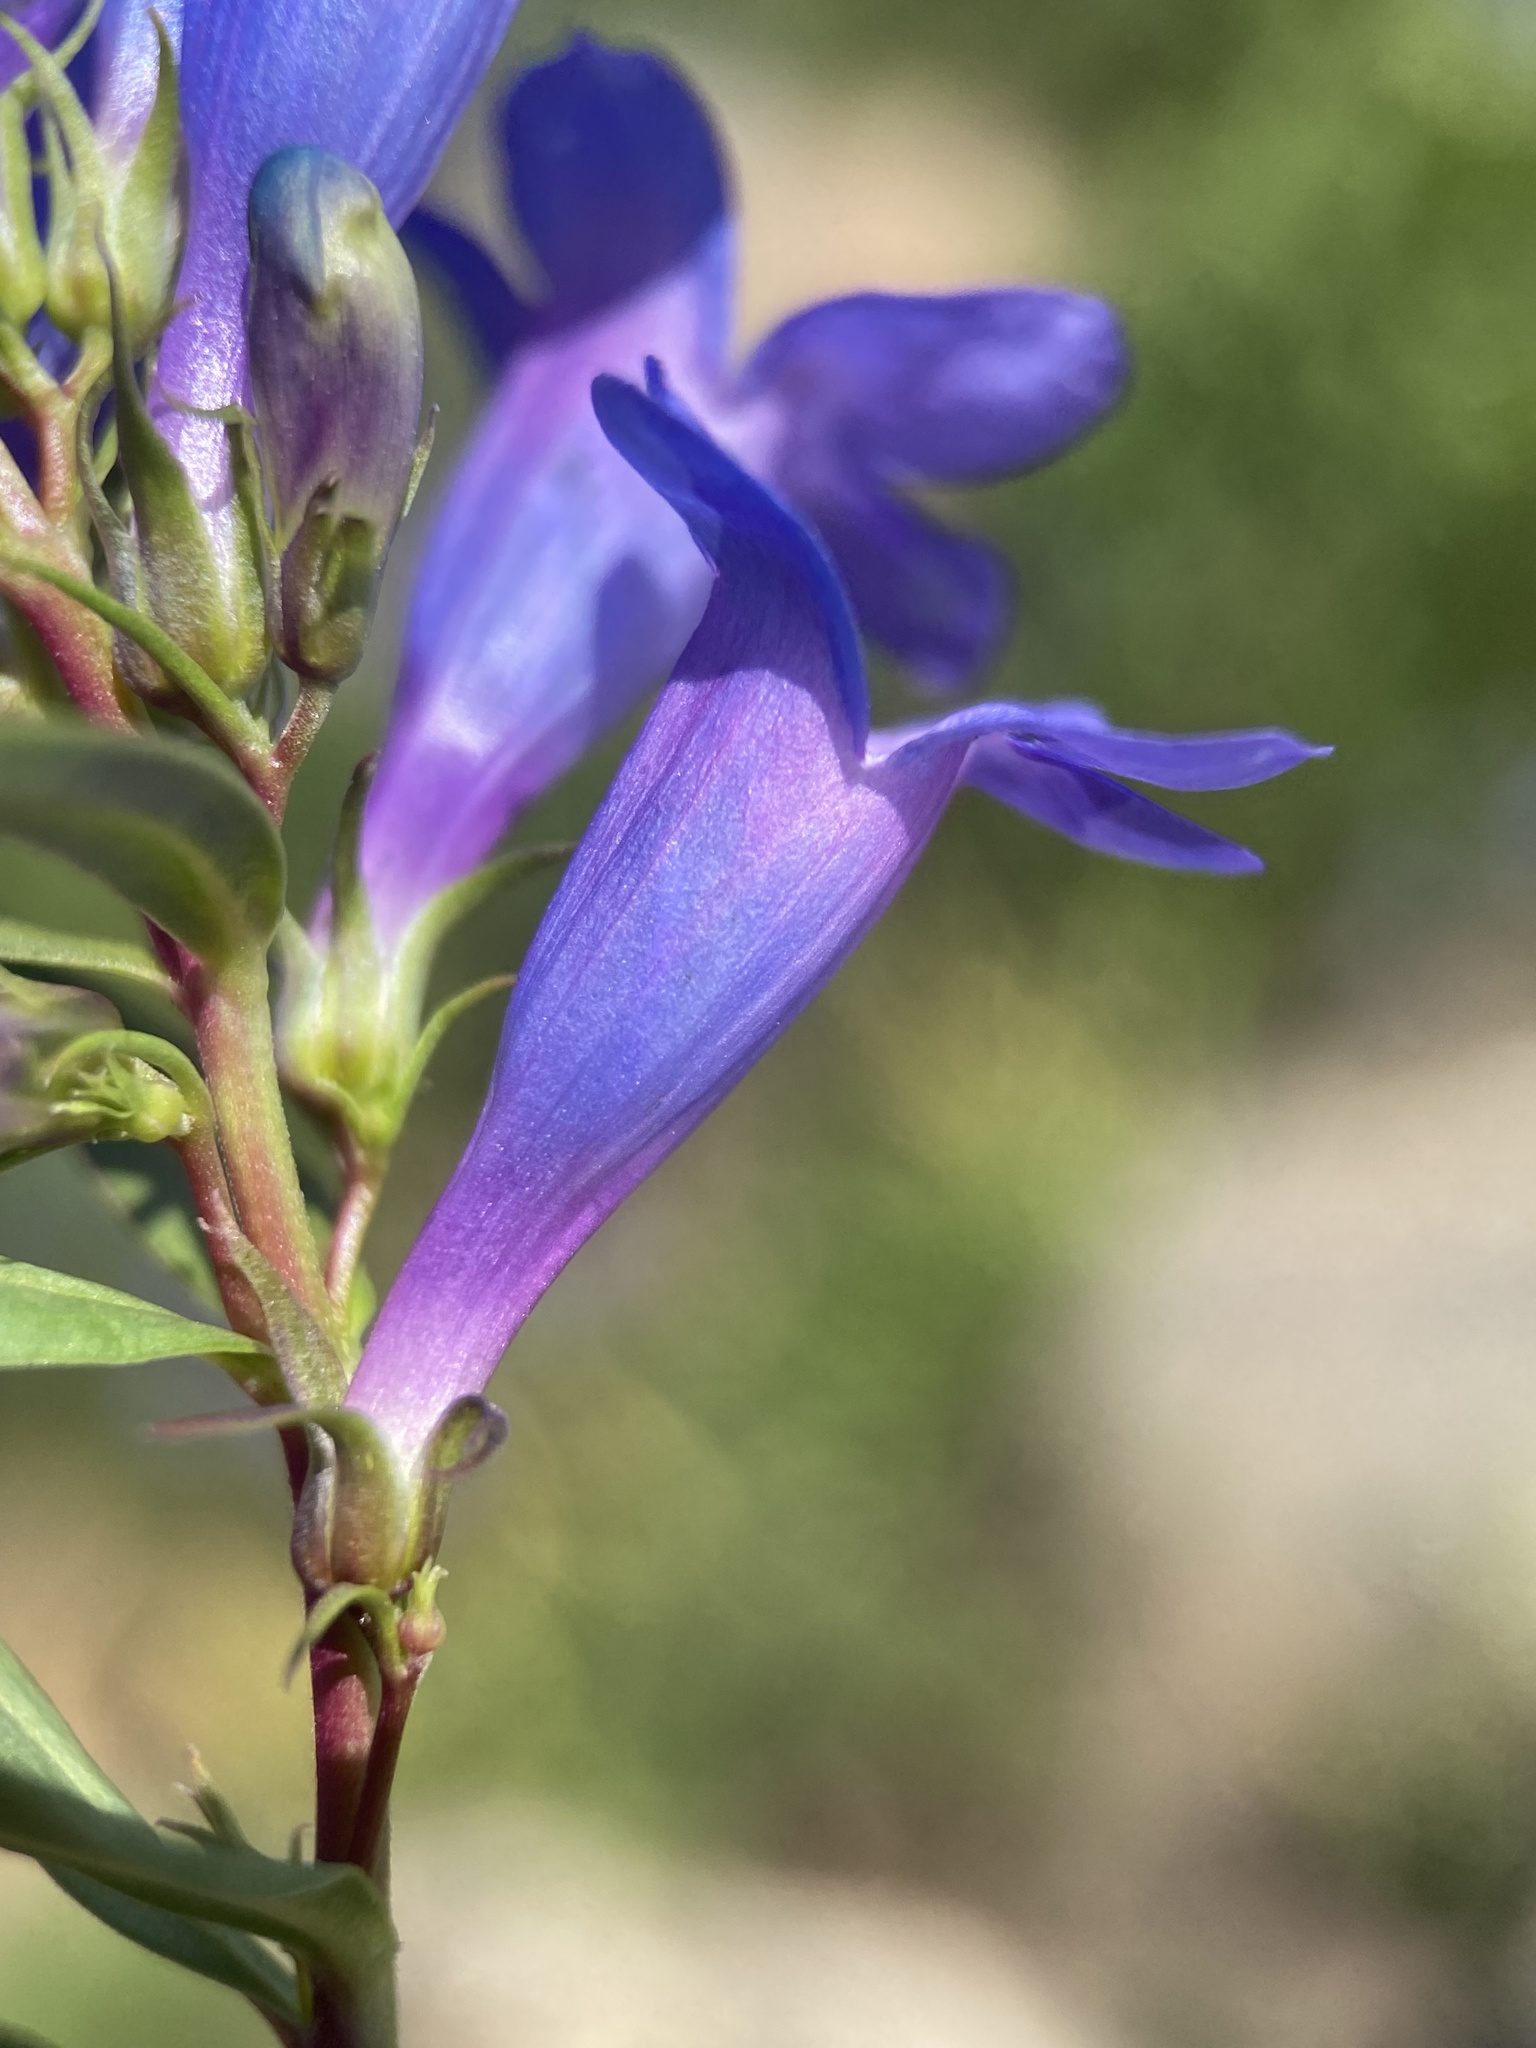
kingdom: Plantae
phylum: Tracheophyta
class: Magnoliopsida
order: Lamiales
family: Plantaginaceae
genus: Penstemon
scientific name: Penstemon leonardii
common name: Leonard's penstemon
